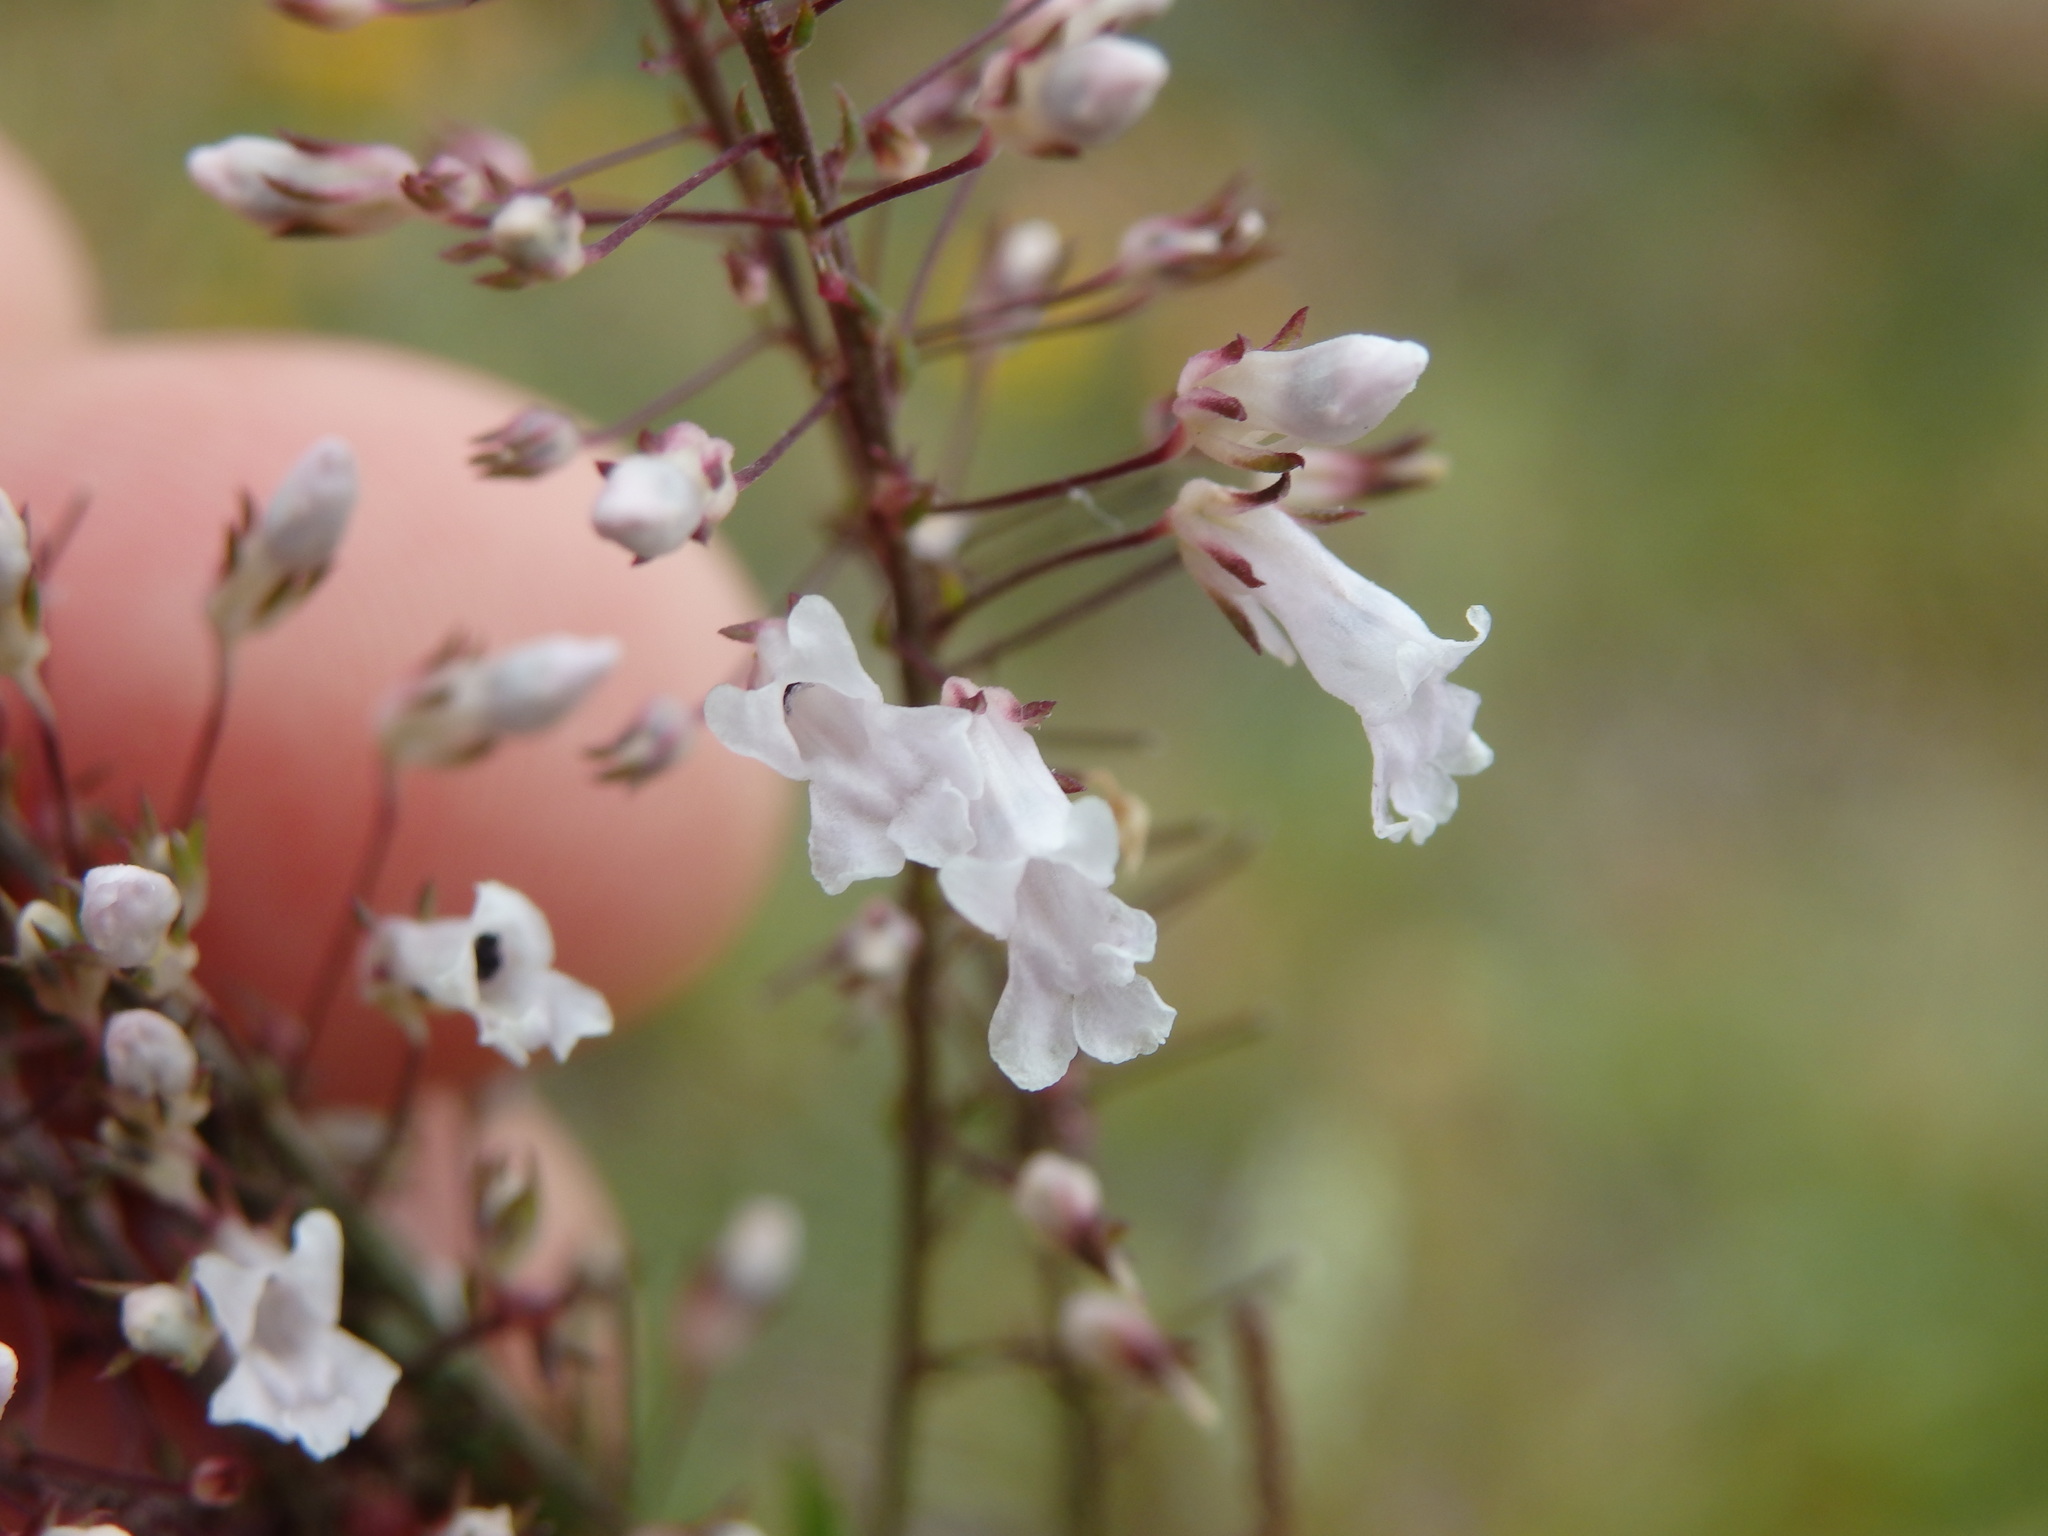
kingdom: Plantae
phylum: Tracheophyta
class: Magnoliopsida
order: Lamiales
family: Plantaginaceae
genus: Anarrhinum
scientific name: Anarrhinum longipedicellatum
